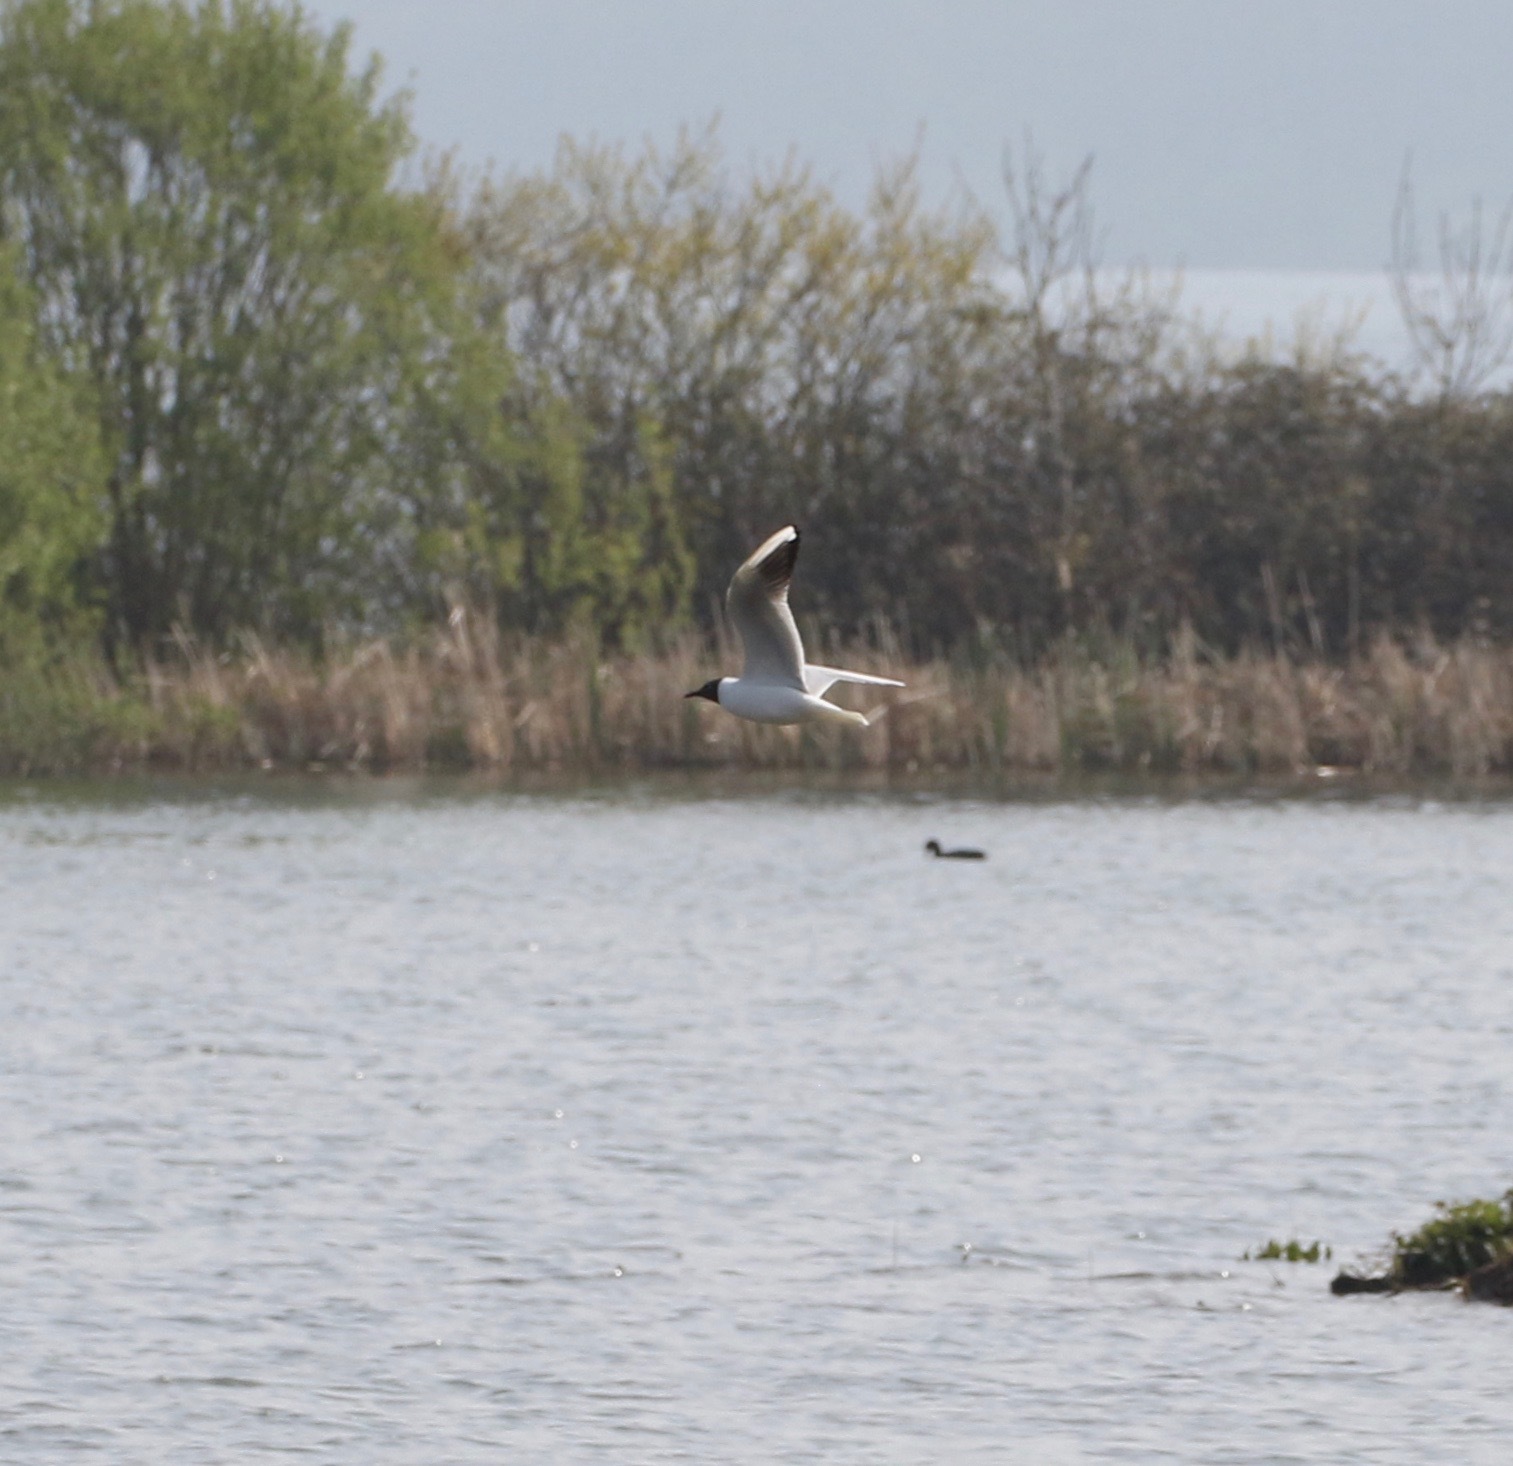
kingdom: Animalia
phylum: Chordata
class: Aves
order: Charadriiformes
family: Laridae
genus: Chroicocephalus
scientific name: Chroicocephalus ridibundus
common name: Black-headed gull
